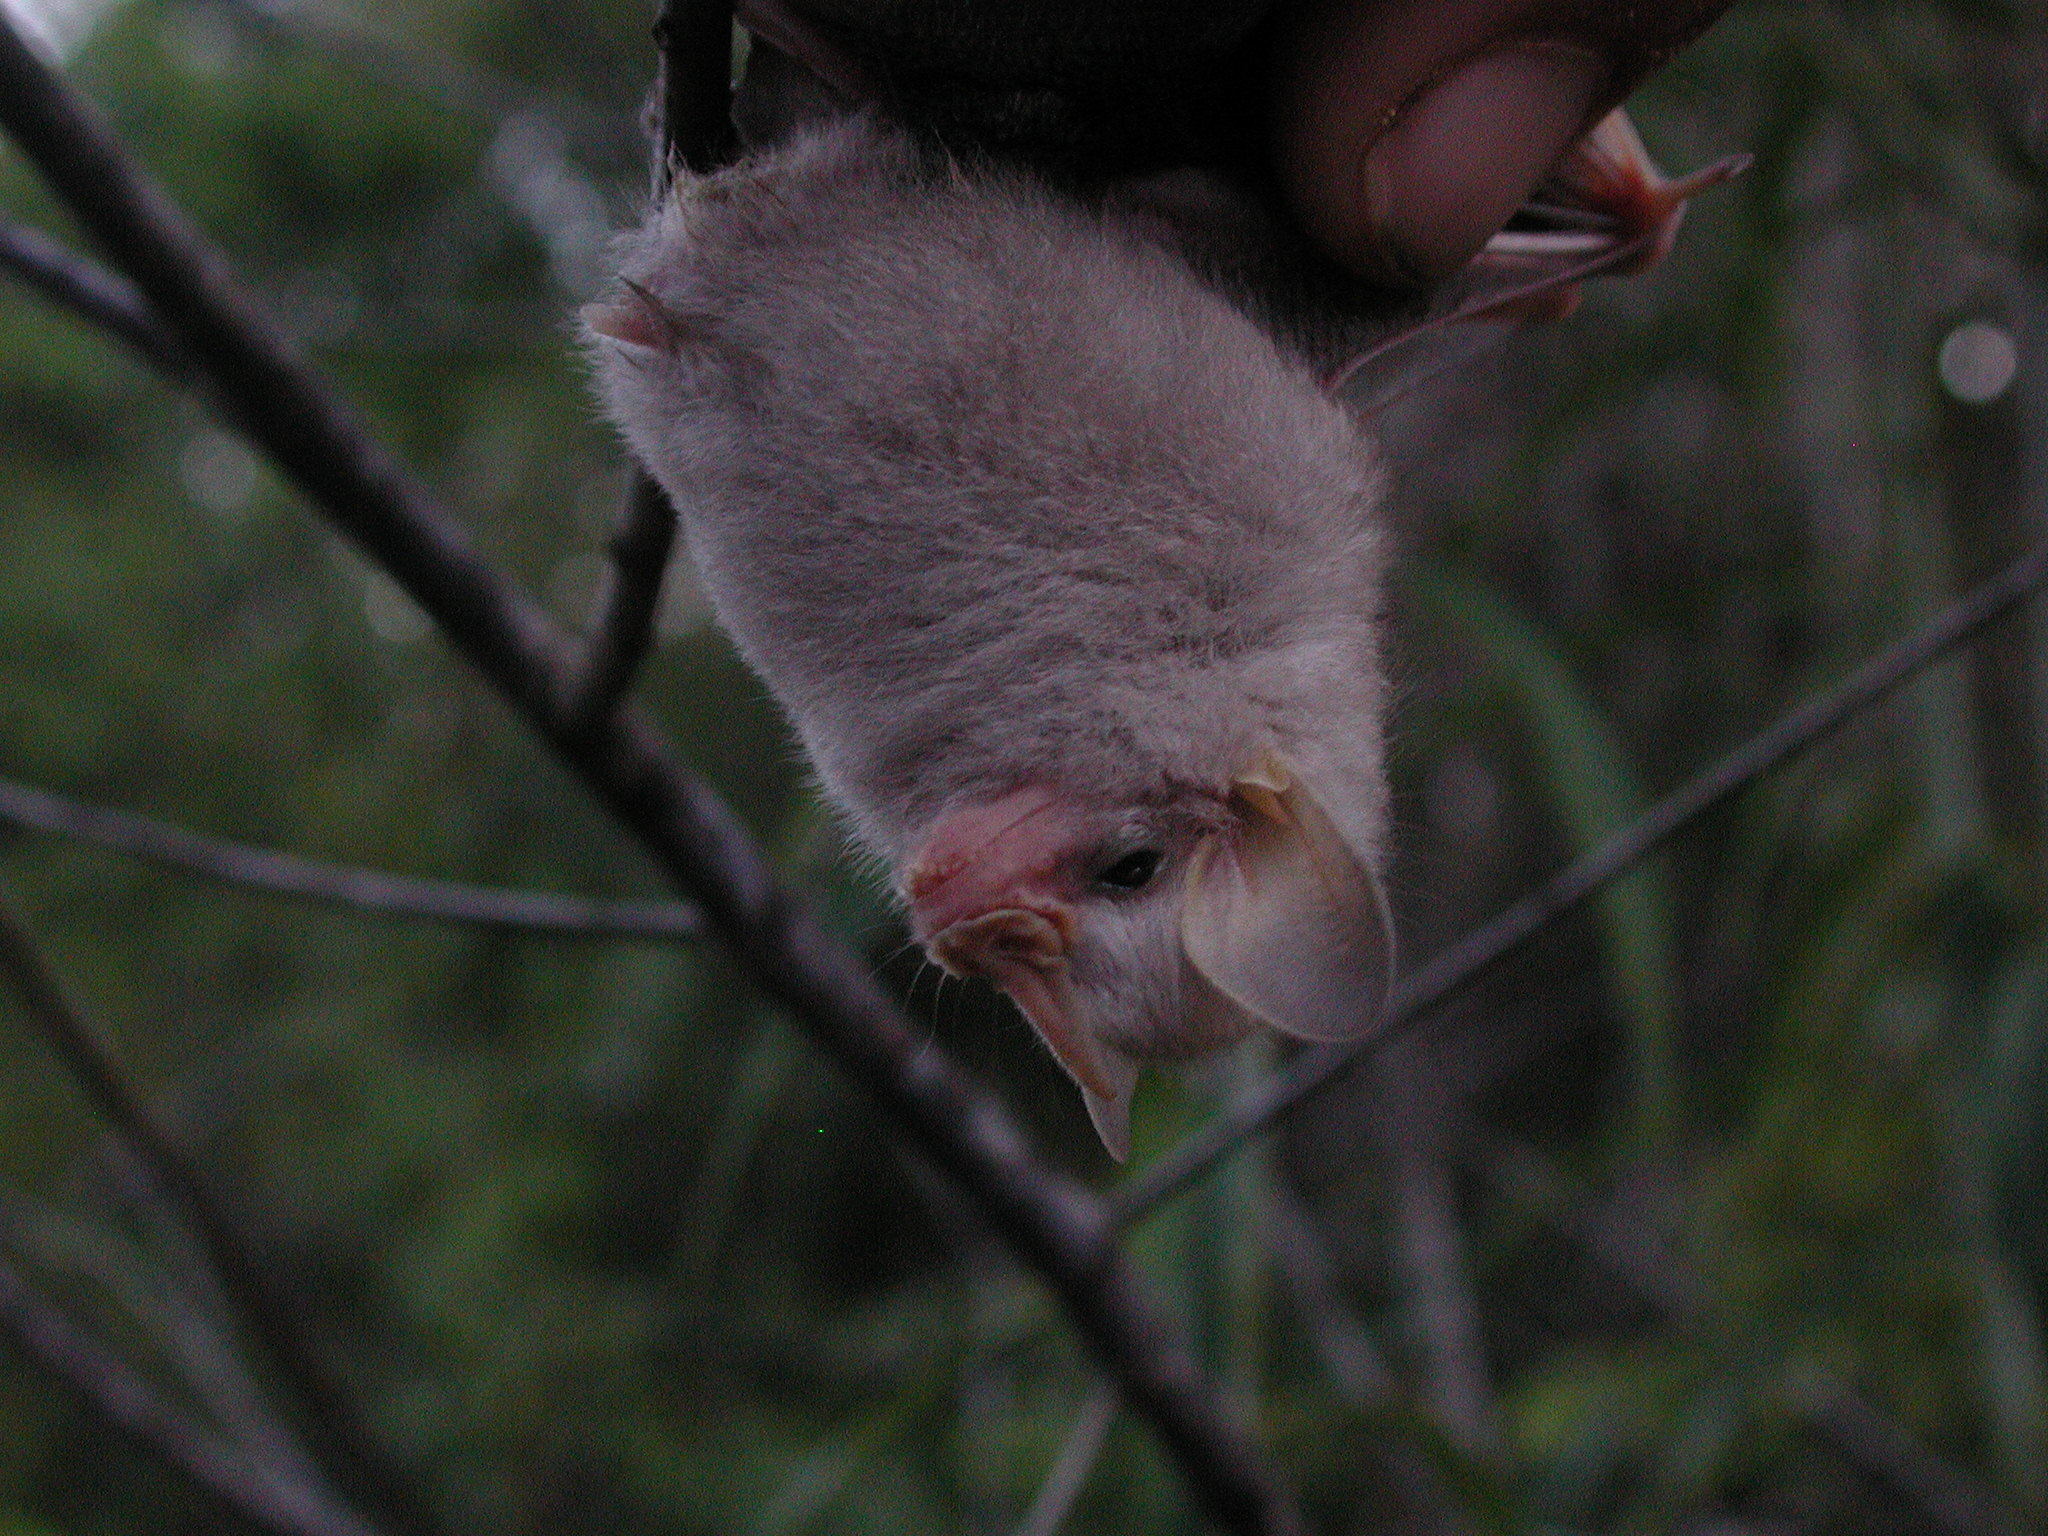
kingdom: Animalia
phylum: Chordata
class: Mammalia
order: Chiroptera
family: Phyllostomidae
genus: Mesophylla
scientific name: Mesophylla macconnelli
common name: Macconnell's bat
